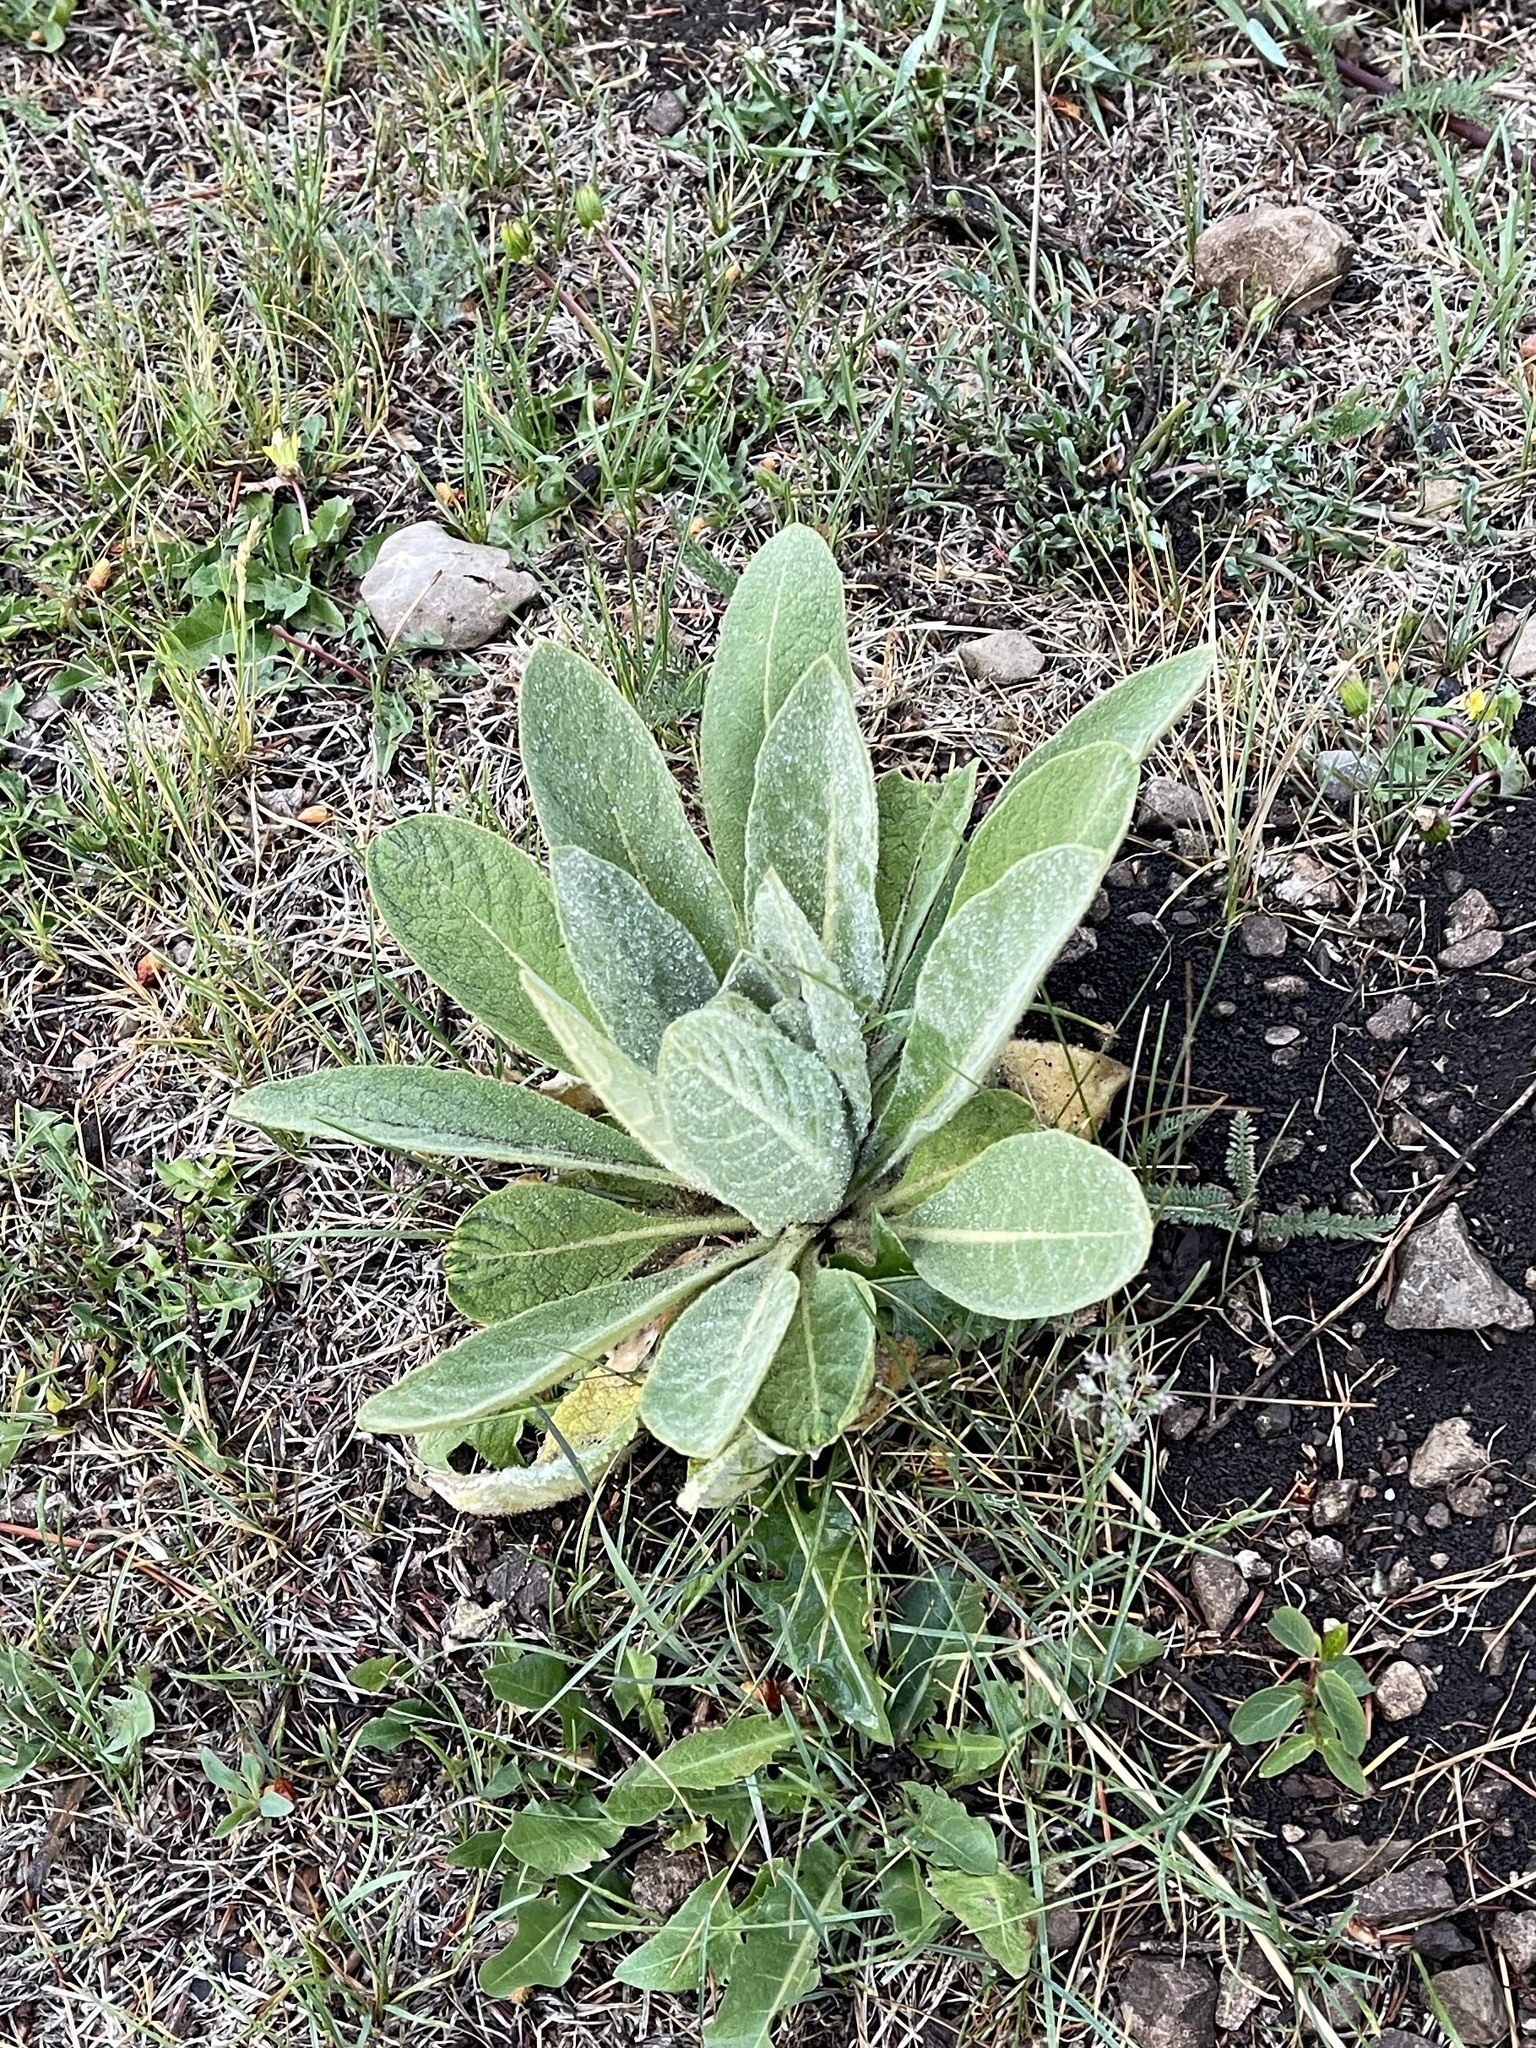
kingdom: Plantae
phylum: Tracheophyta
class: Magnoliopsida
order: Lamiales
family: Scrophulariaceae
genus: Verbascum
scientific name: Verbascum thapsus
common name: Common mullein
